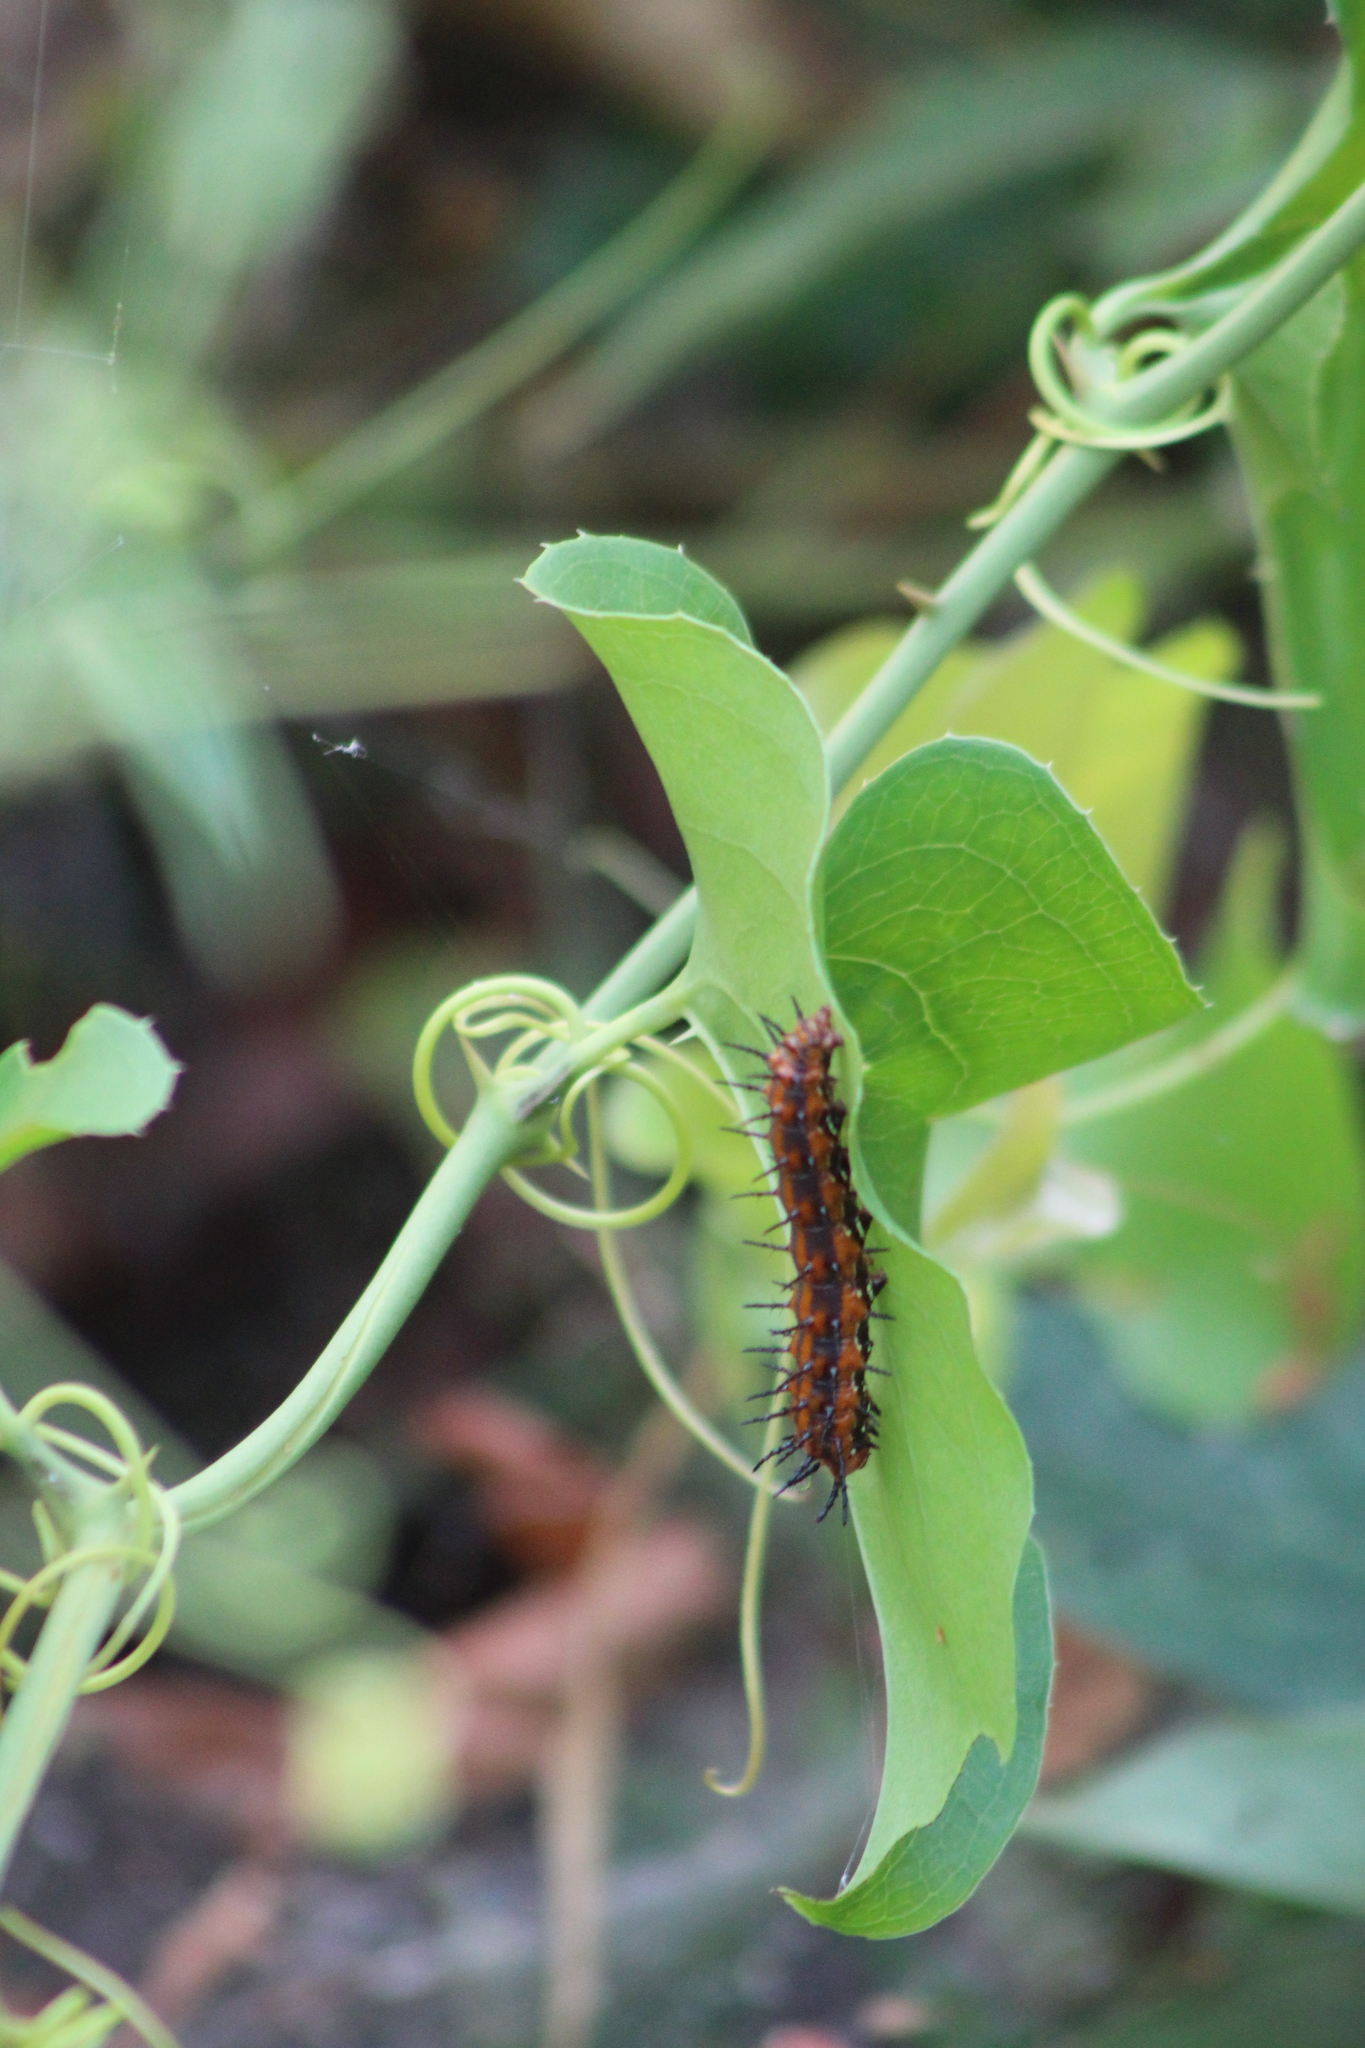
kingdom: Animalia
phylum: Arthropoda
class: Insecta
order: Lepidoptera
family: Nymphalidae
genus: Dione
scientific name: Dione vanillae
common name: Gulf fritillary
